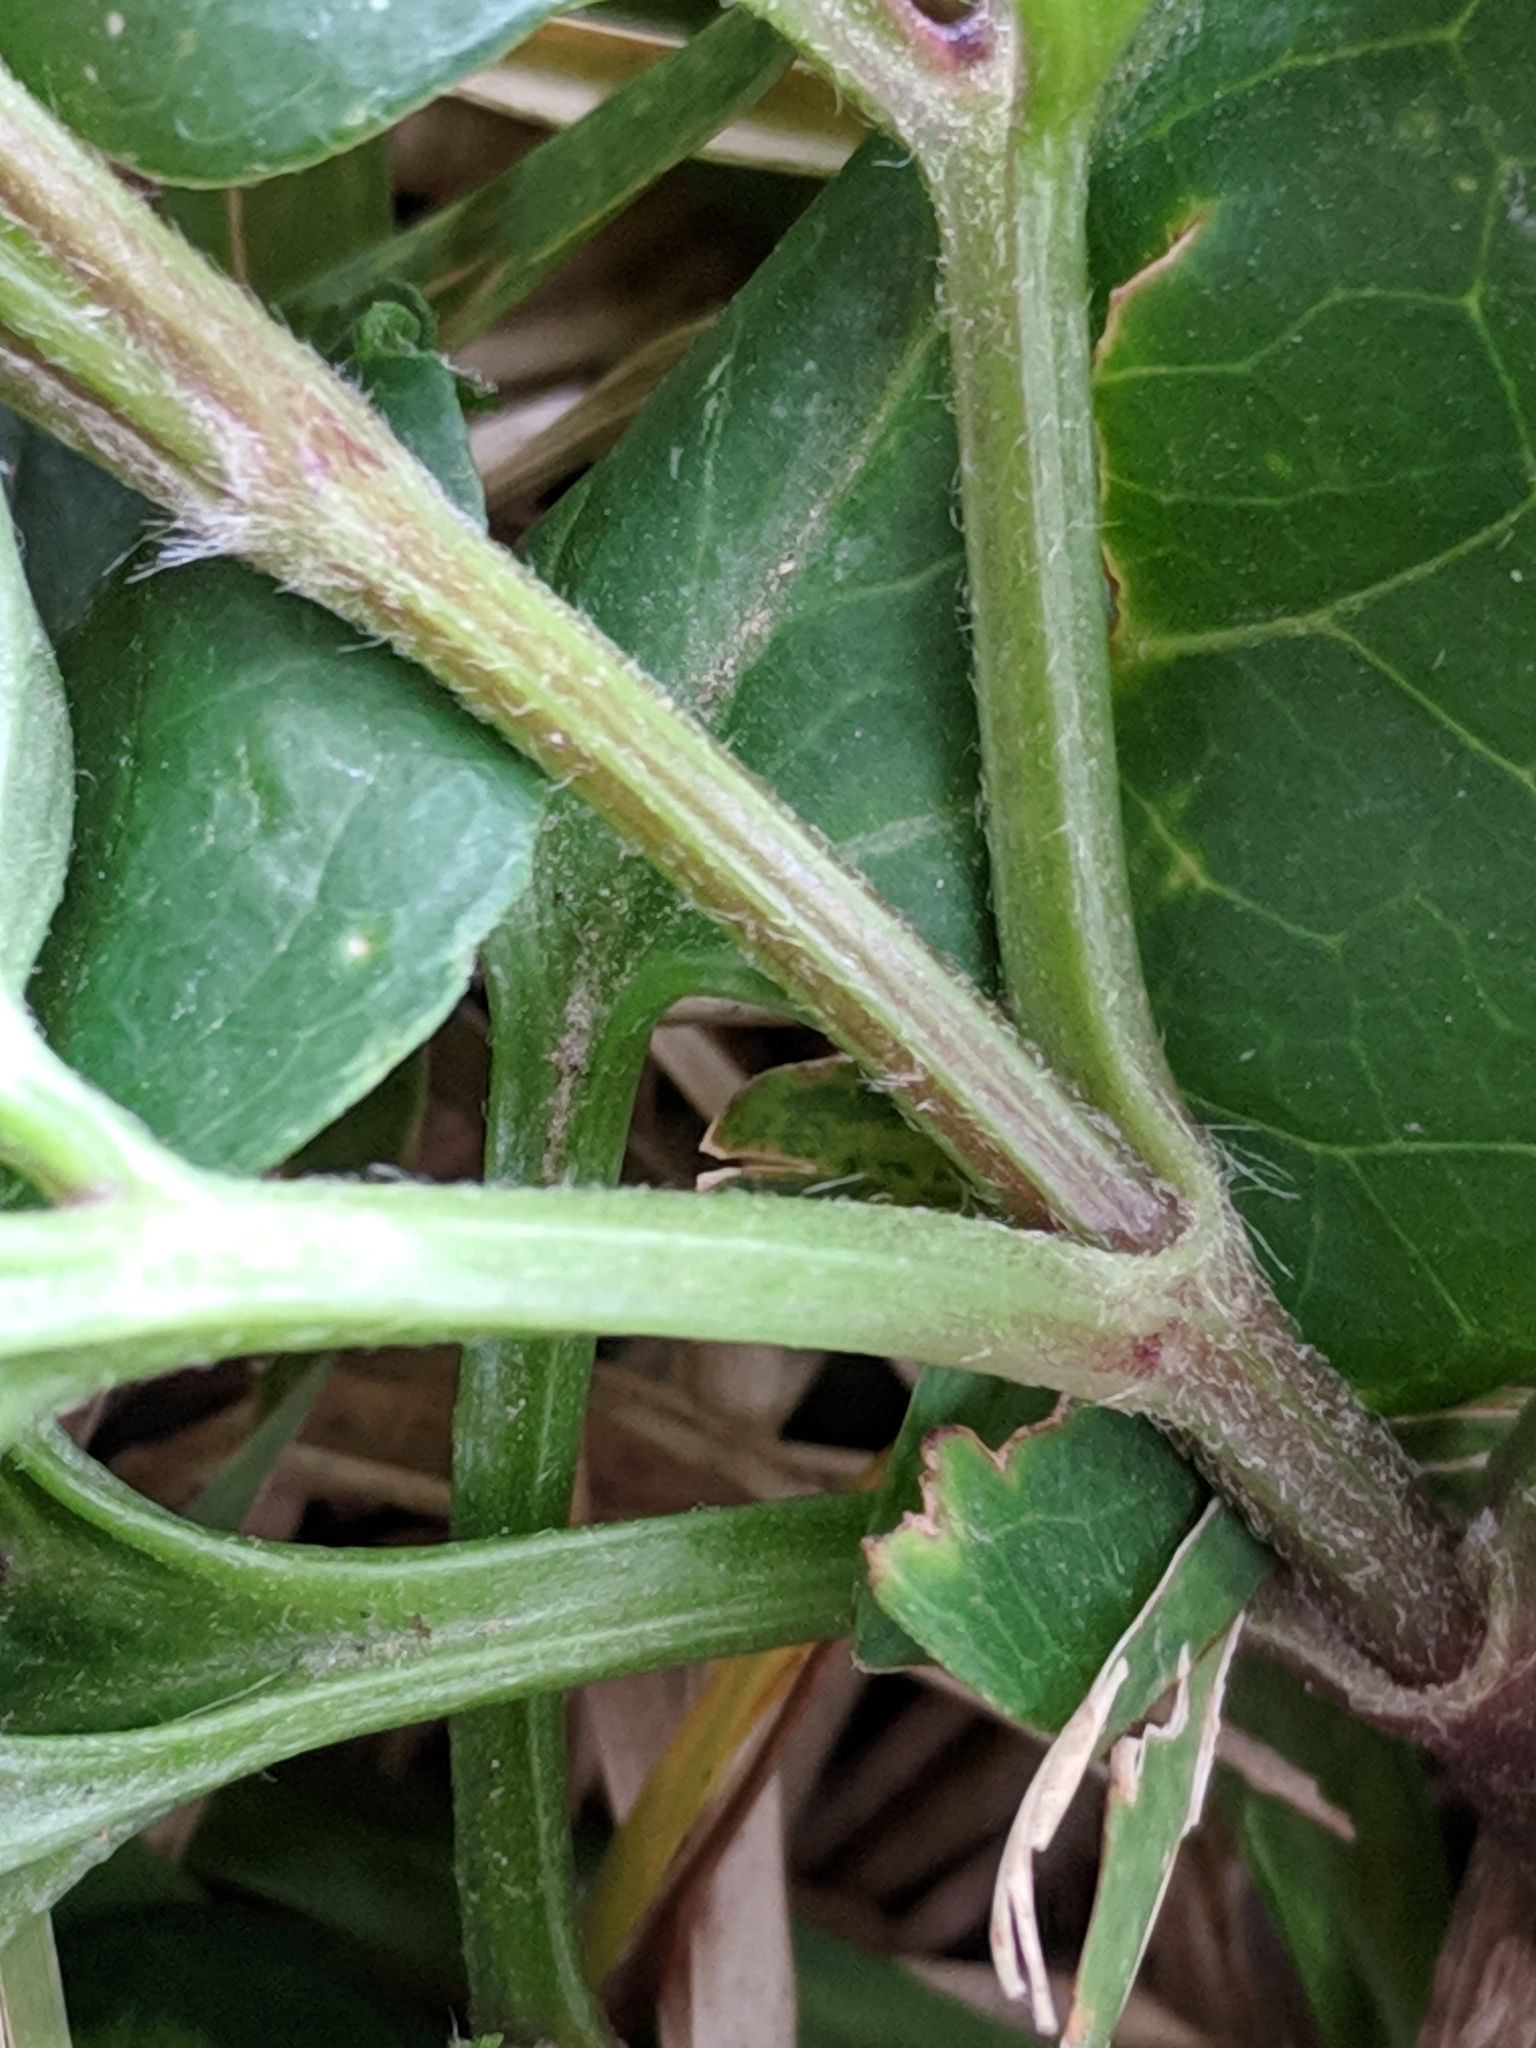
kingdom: Plantae
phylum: Tracheophyta
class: Magnoliopsida
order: Ranunculales
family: Ranunculaceae
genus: Clematis
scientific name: Clematis terniflora
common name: Sweet autumn clematis
